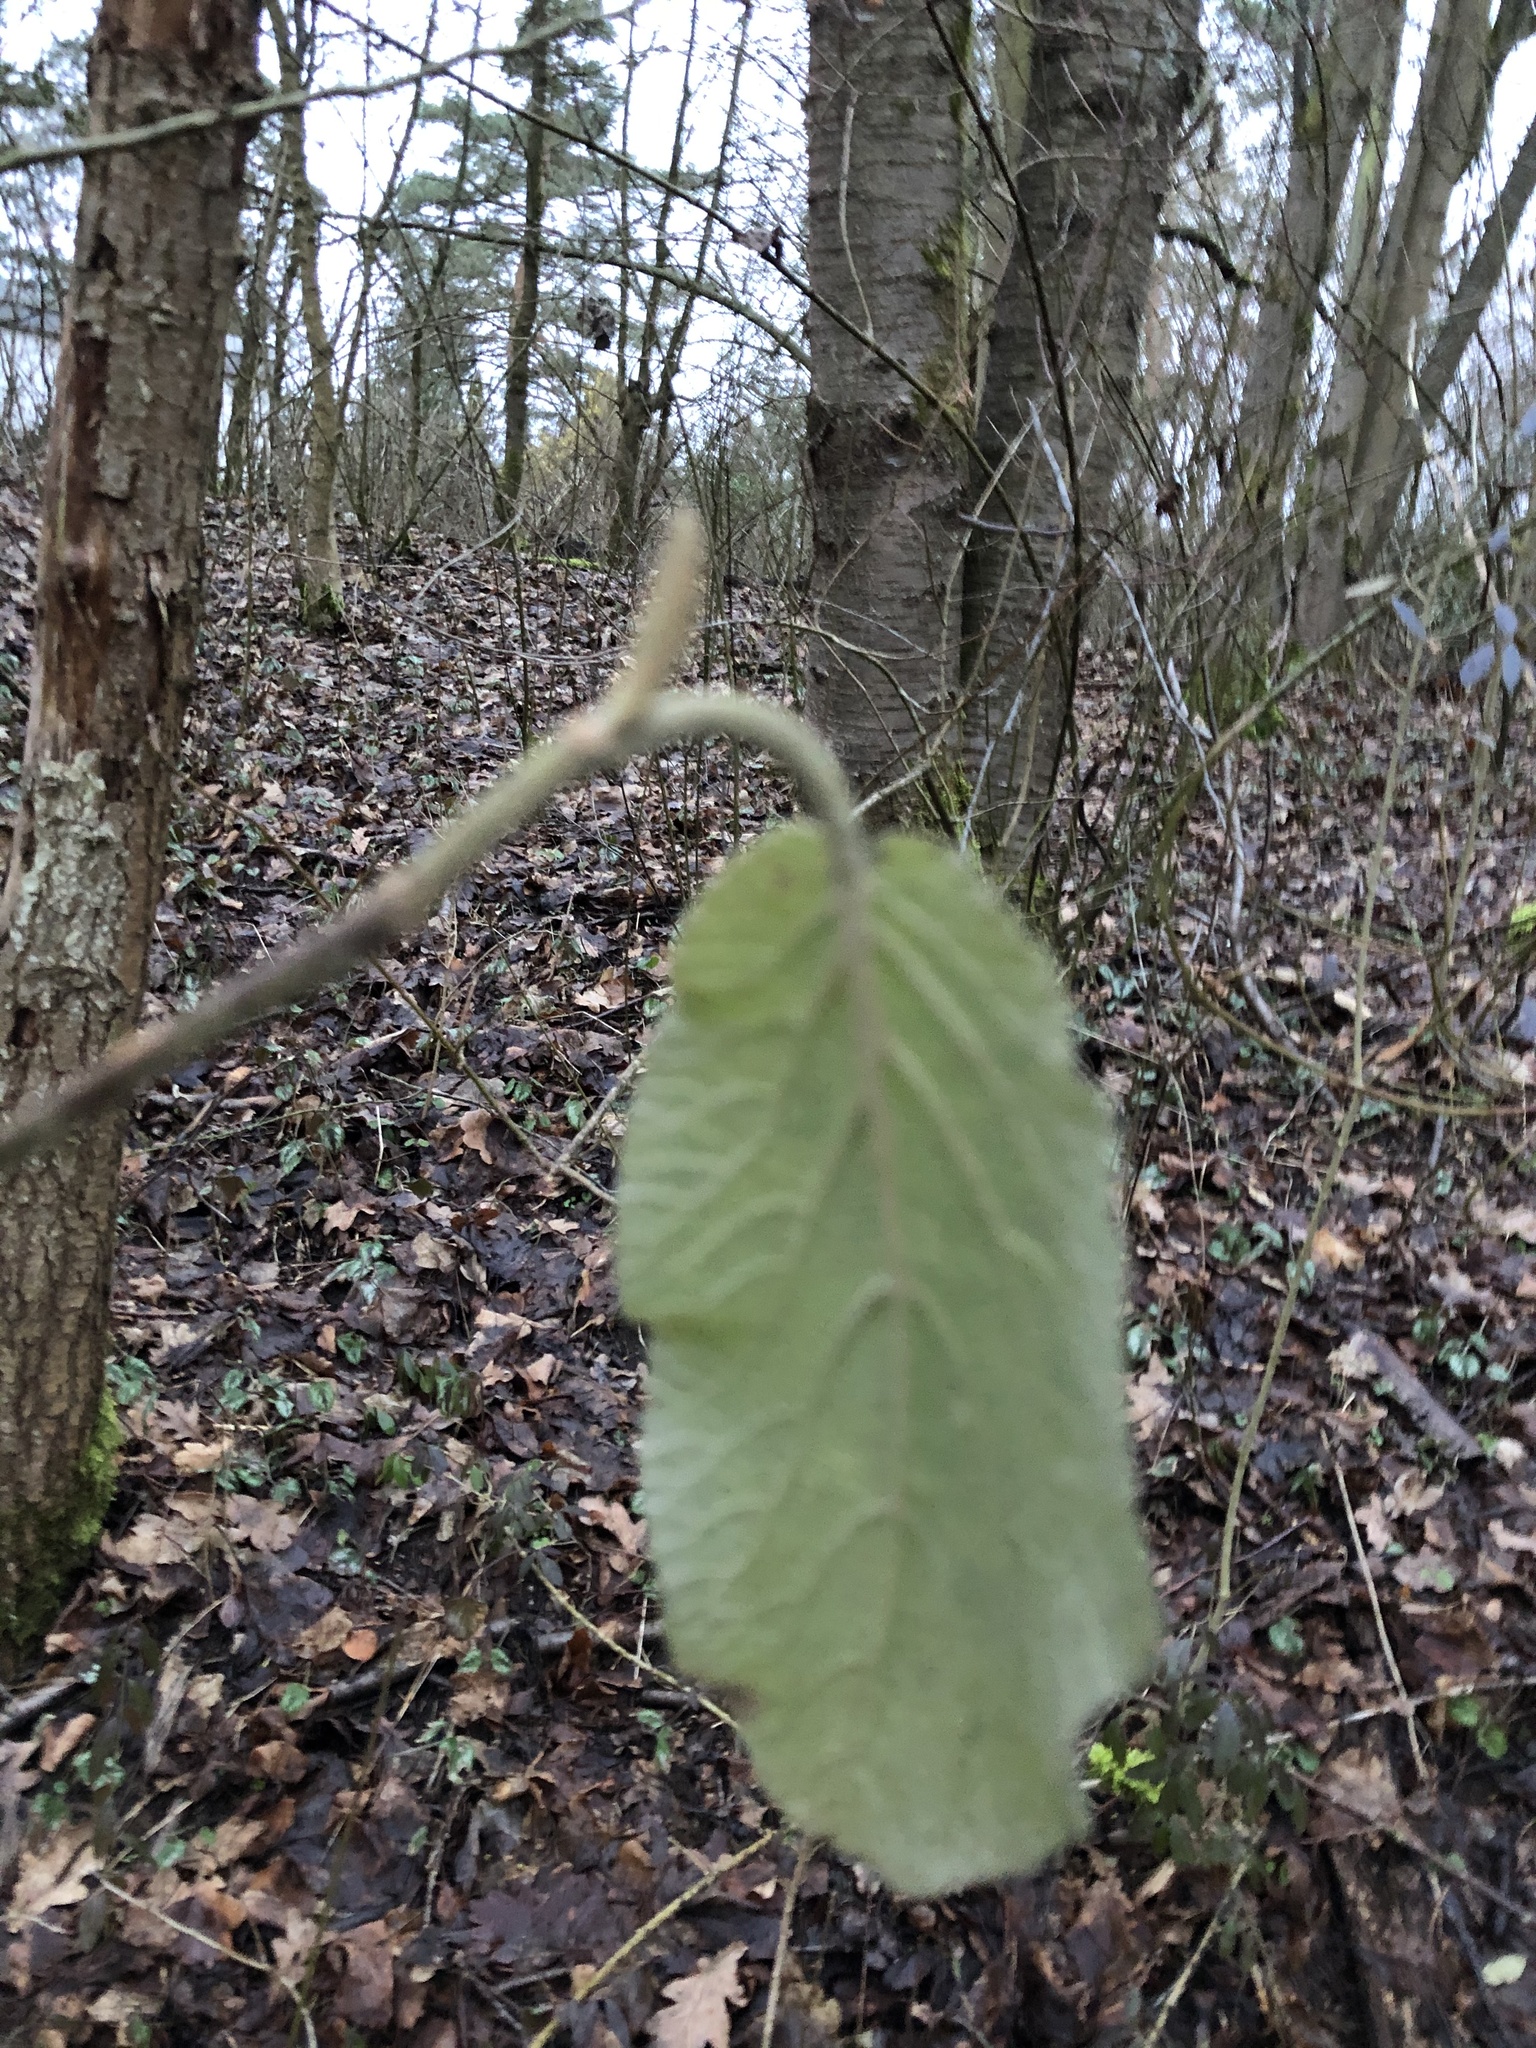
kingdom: Plantae
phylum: Tracheophyta
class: Magnoliopsida
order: Dipsacales
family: Viburnaceae
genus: Viburnum
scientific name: Viburnum lantana
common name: Wayfaring tree
